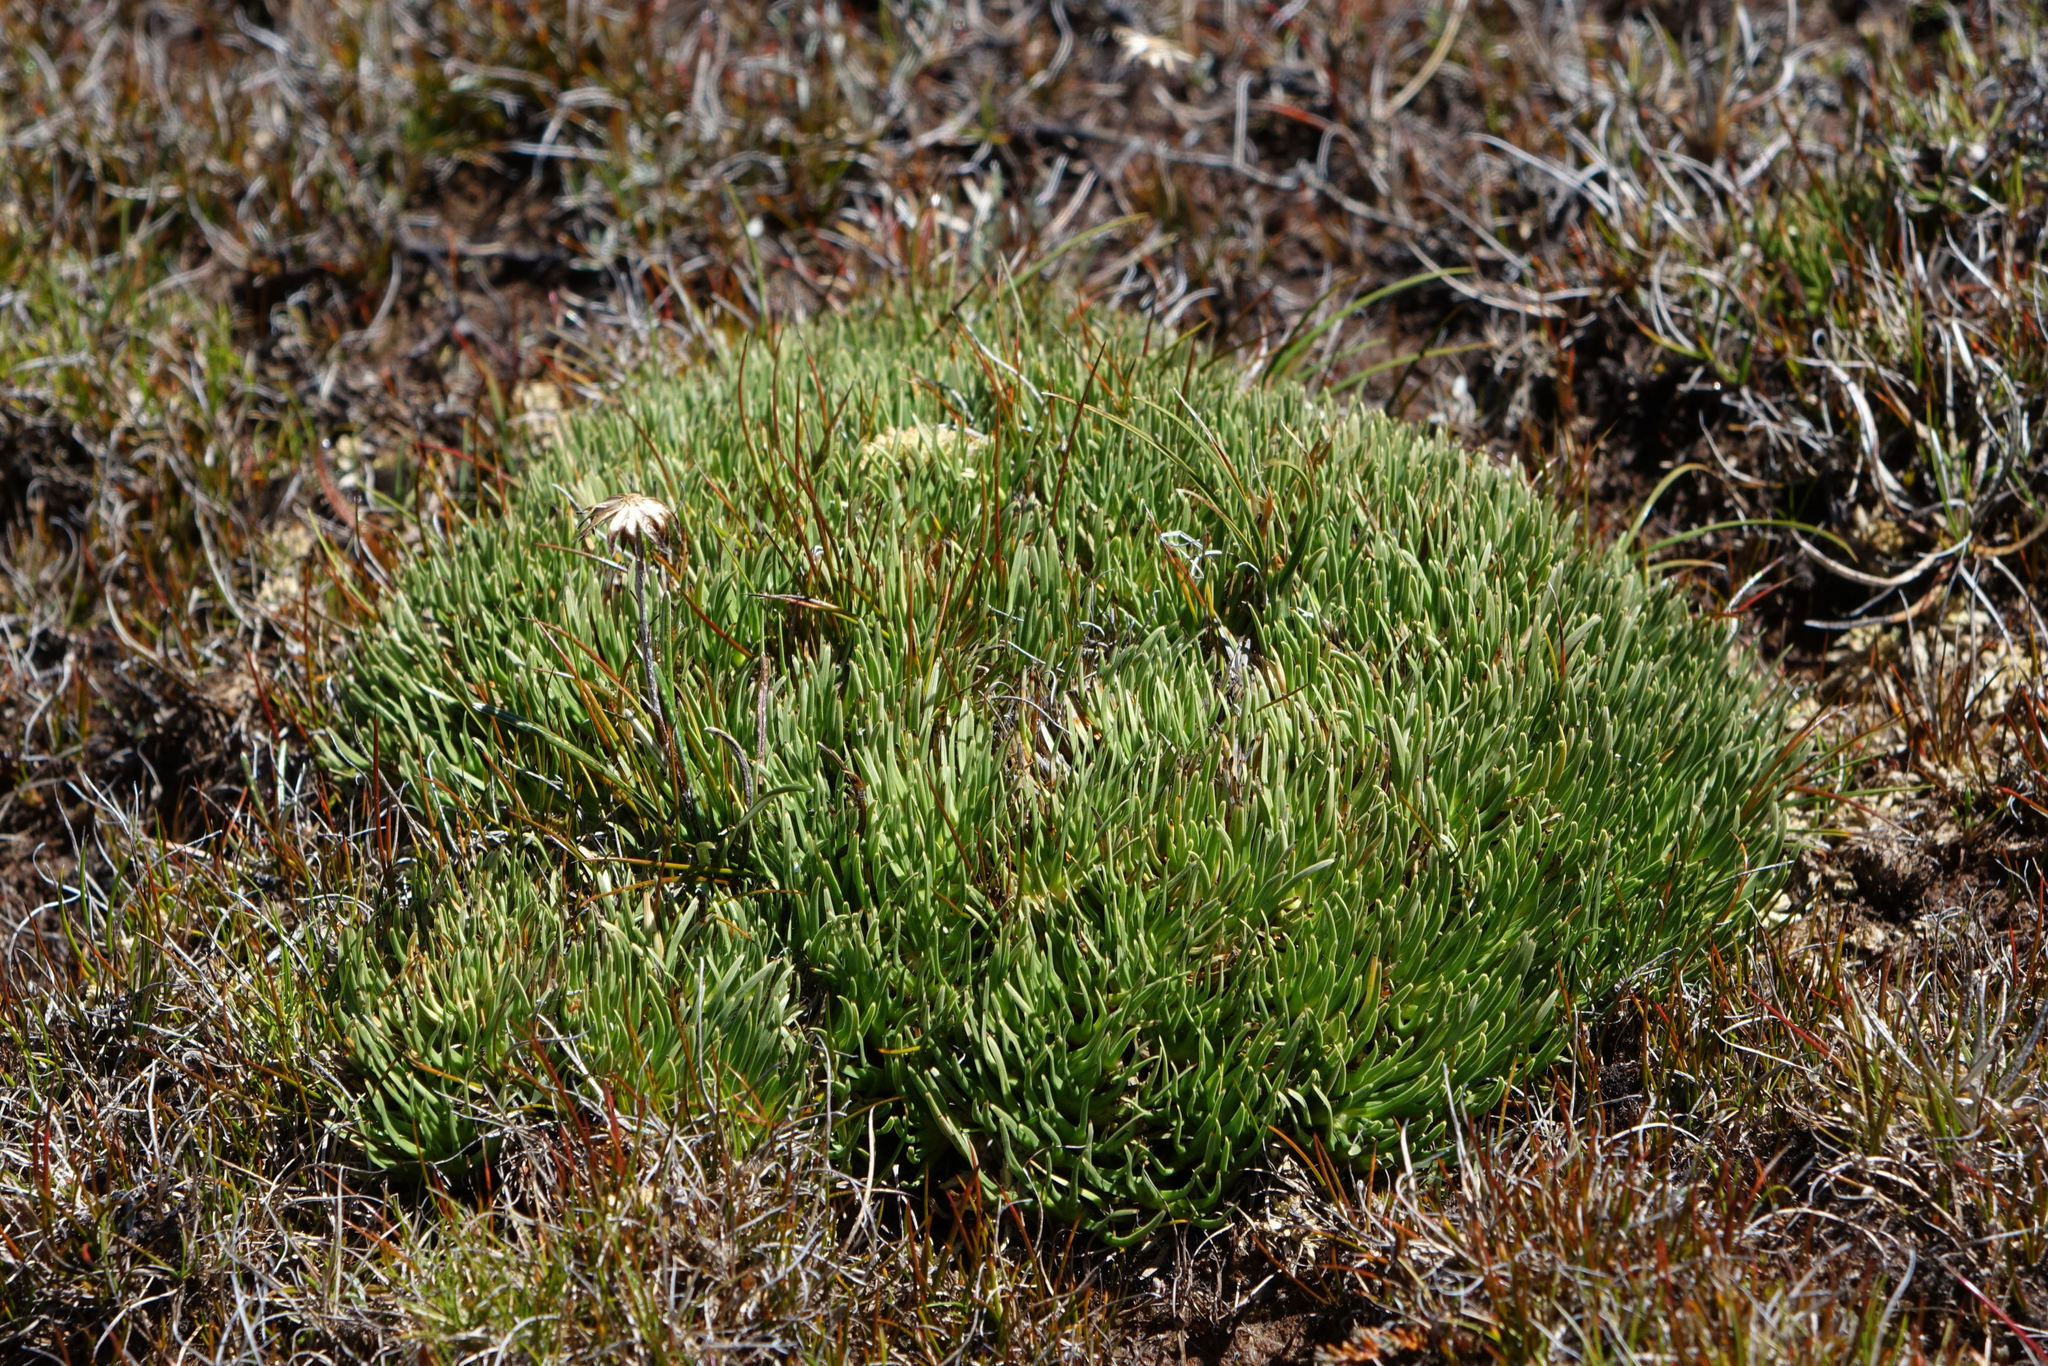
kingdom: Plantae
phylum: Tracheophyta
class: Liliopsida
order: Poales
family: Cyperaceae
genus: Oreobolus
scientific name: Oreobolus pectinatus
